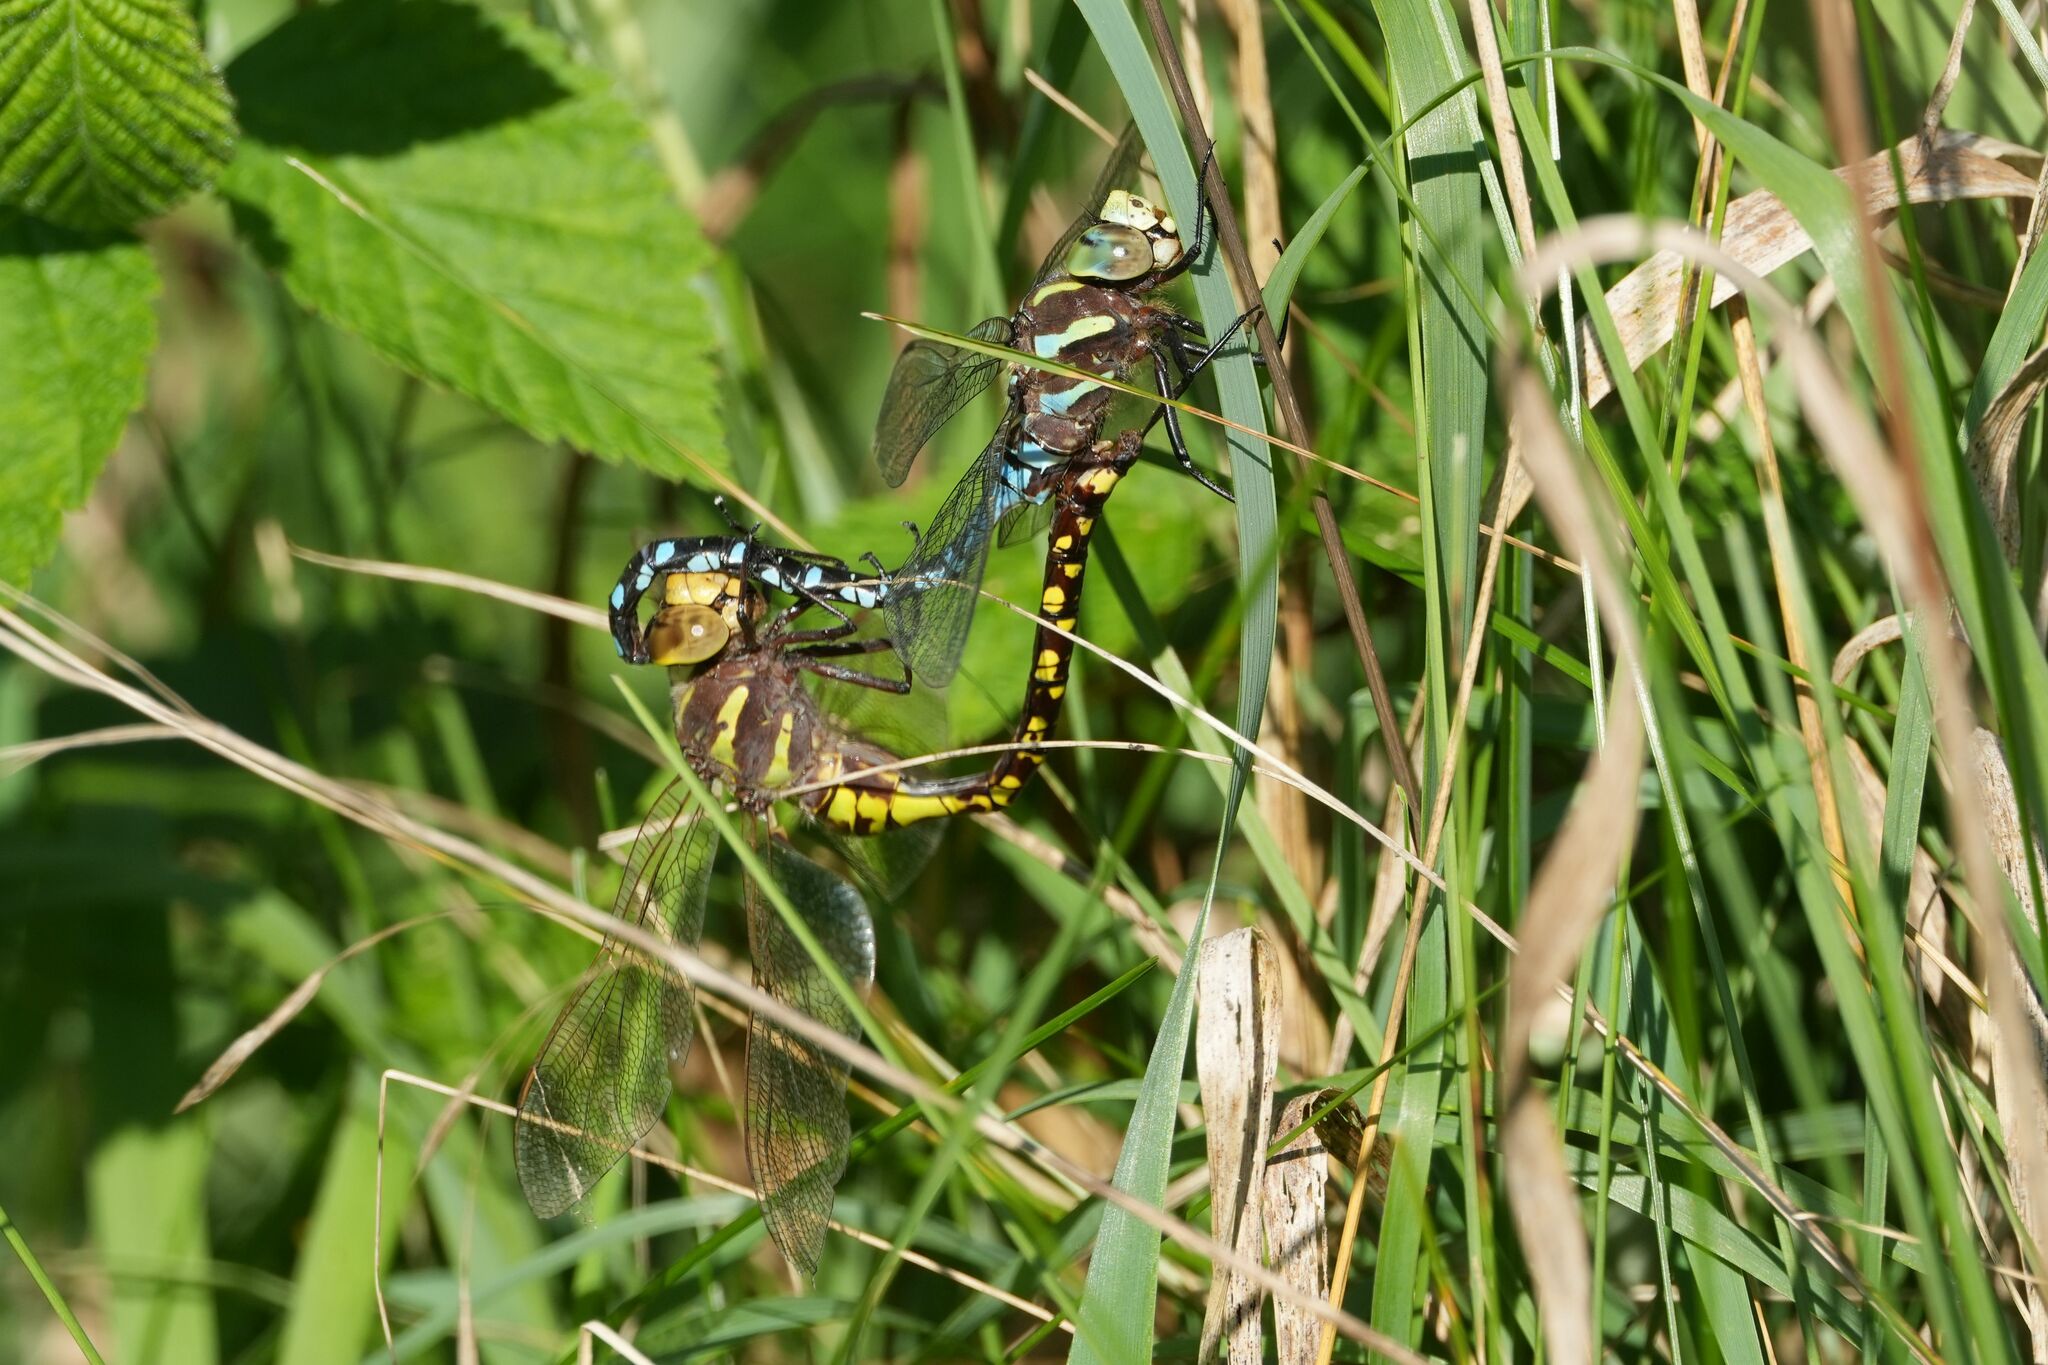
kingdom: Animalia
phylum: Arthropoda
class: Insecta
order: Odonata
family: Aeshnidae
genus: Aeshna
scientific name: Aeshna constricta
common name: Lance-tipped darner
